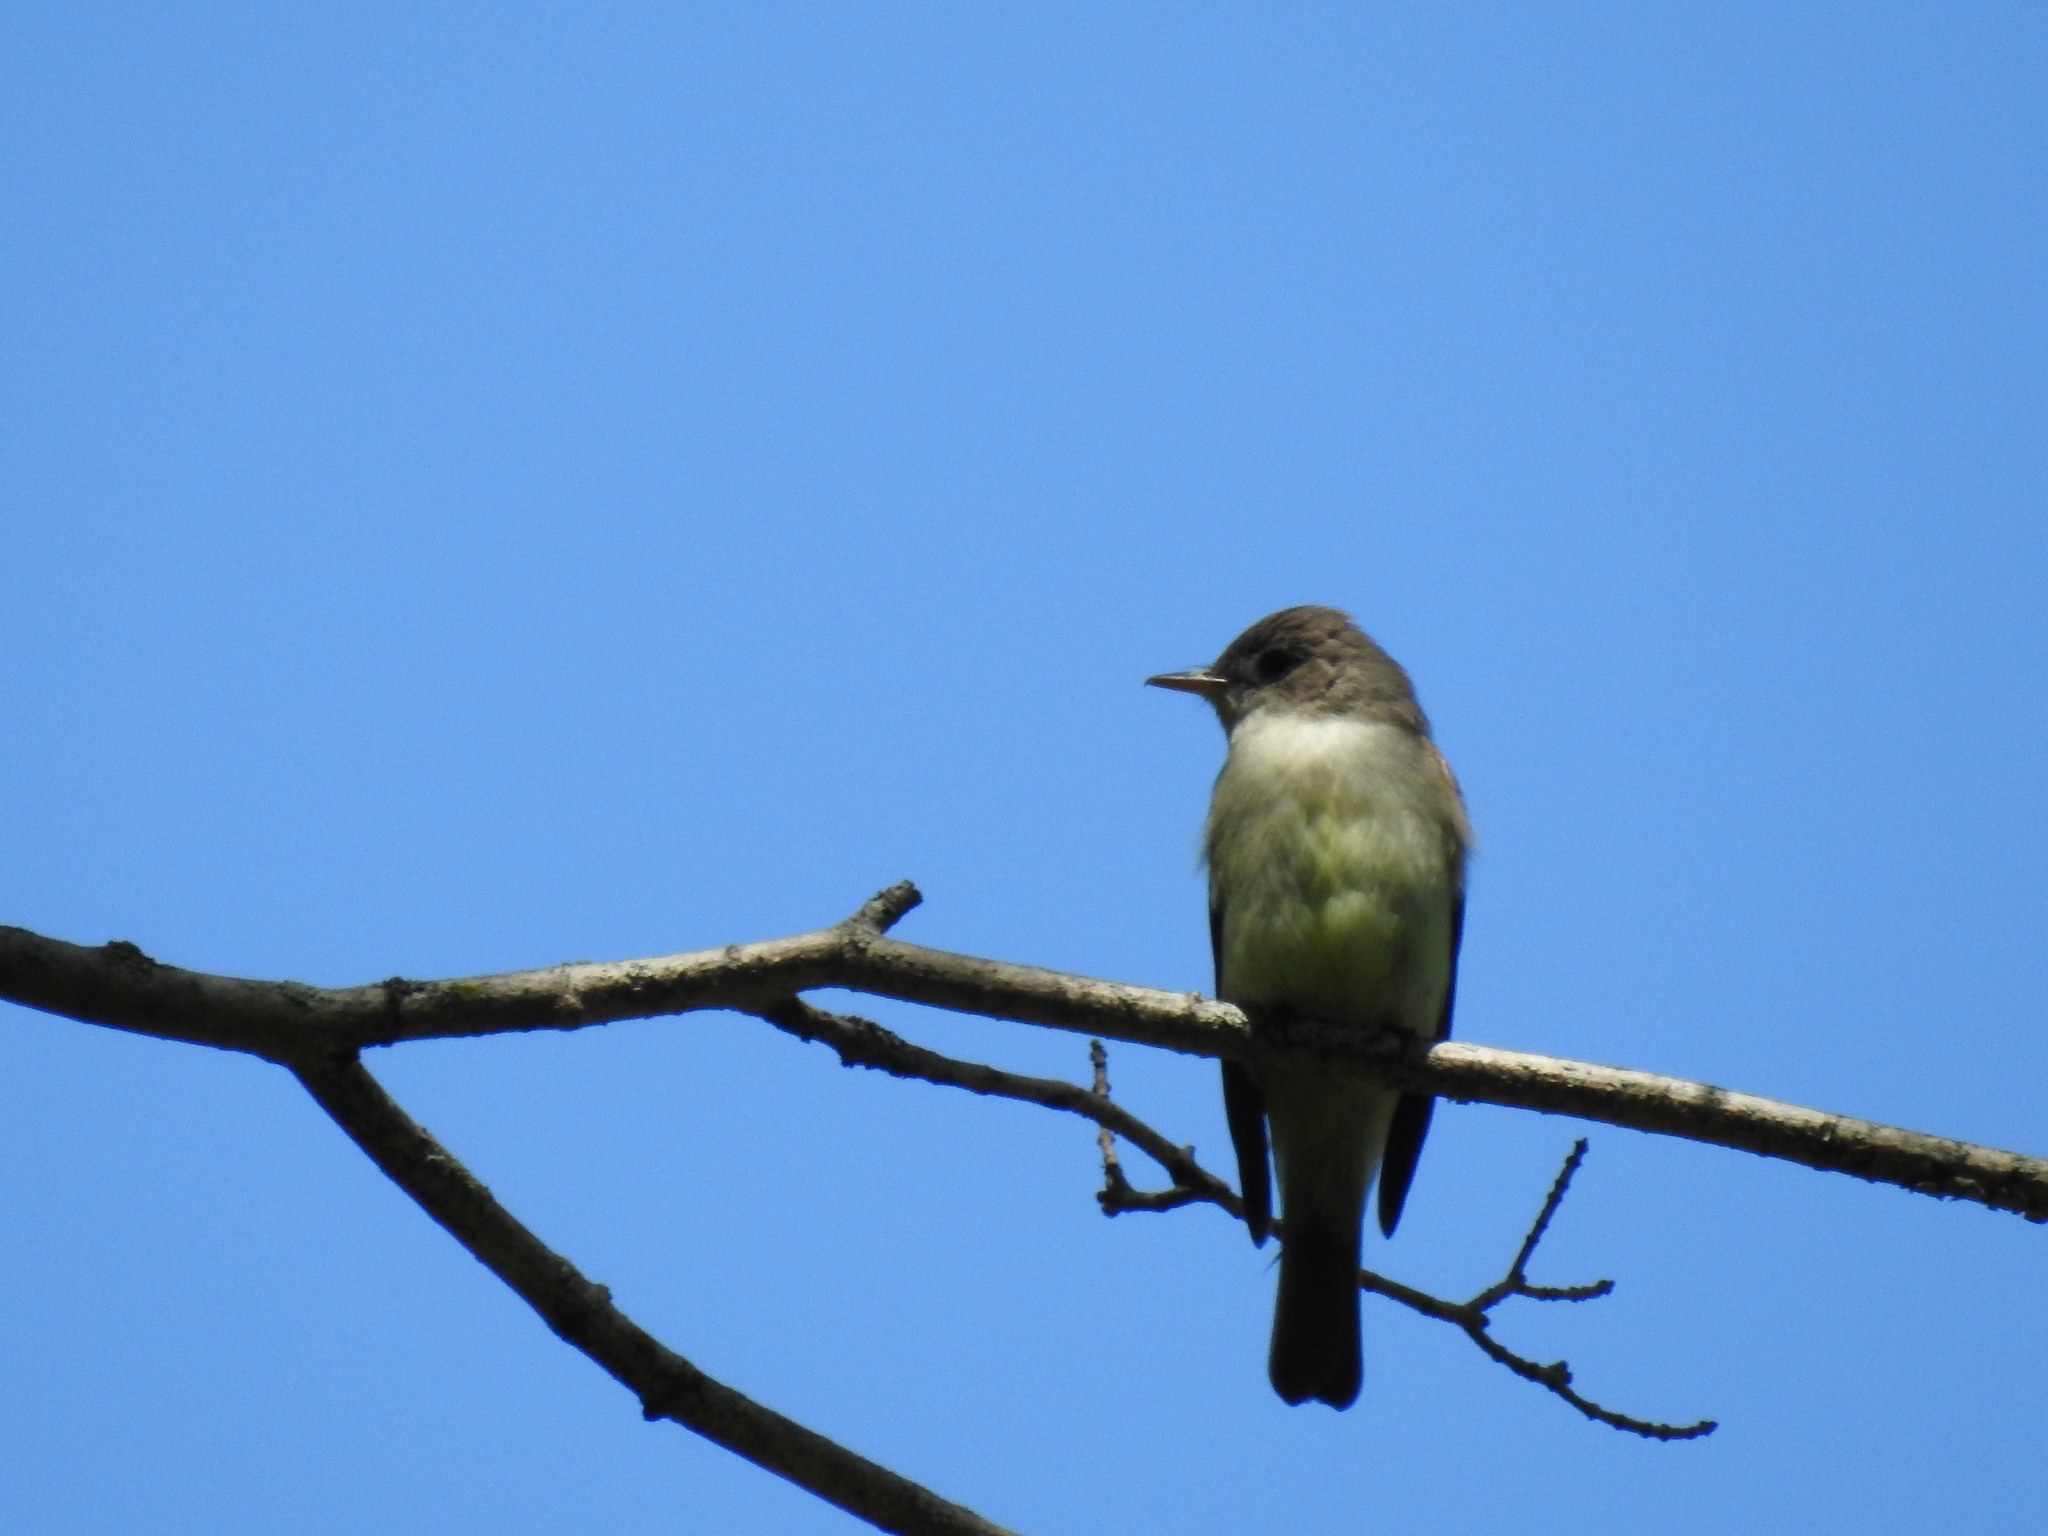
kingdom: Animalia
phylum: Chordata
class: Aves
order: Passeriformes
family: Tyrannidae
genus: Contopus
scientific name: Contopus virens
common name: Eastern wood-pewee
